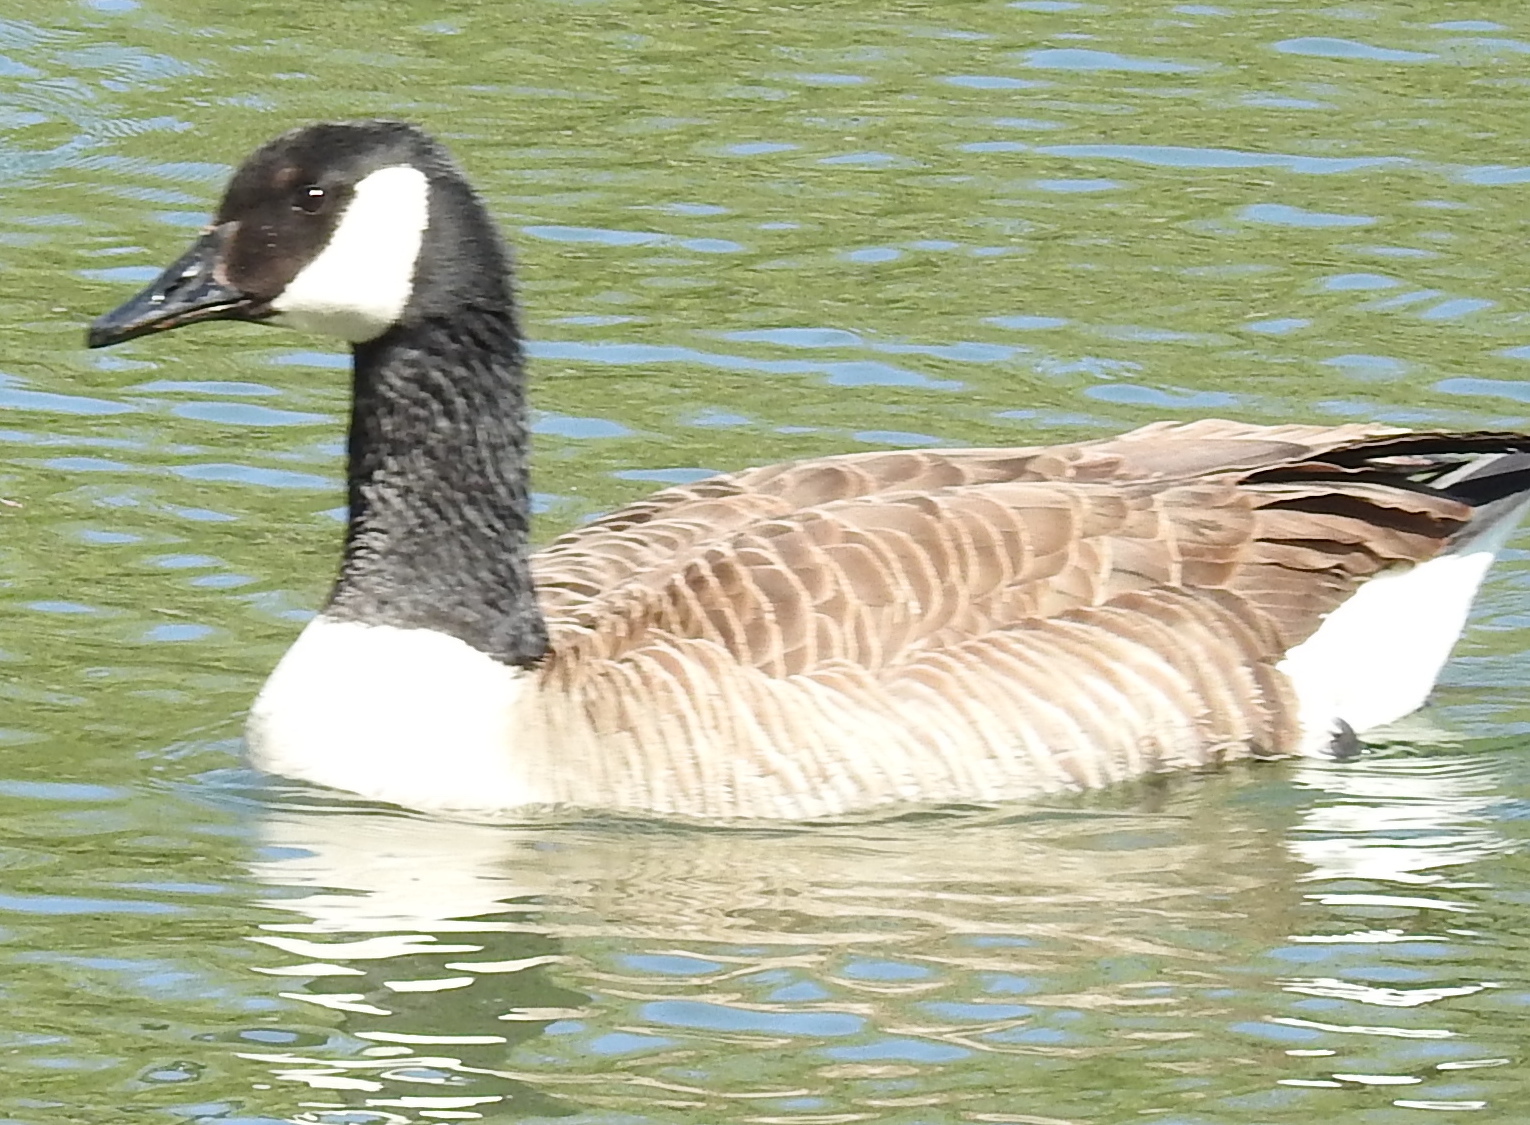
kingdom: Animalia
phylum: Chordata
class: Aves
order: Anseriformes
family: Anatidae
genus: Branta
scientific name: Branta canadensis
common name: Canada goose
